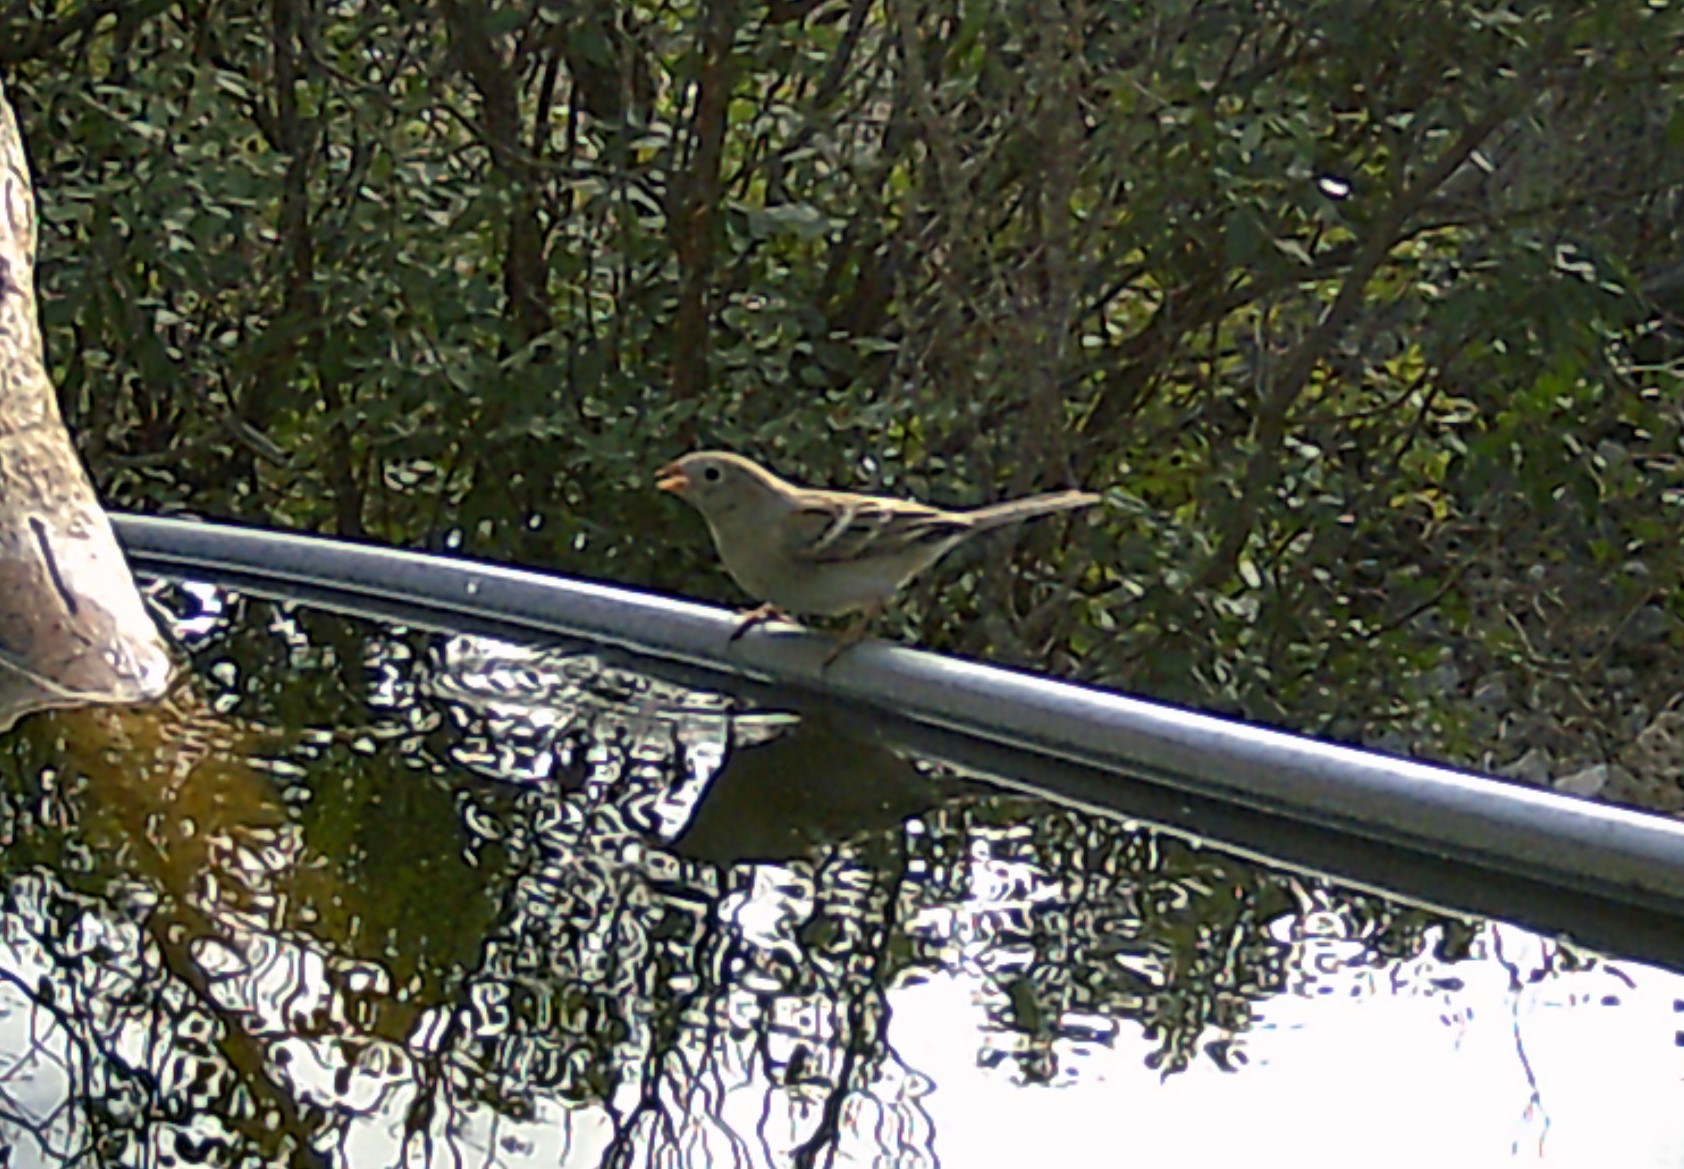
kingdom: Animalia
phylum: Chordata
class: Aves
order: Passeriformes
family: Passerellidae
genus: Spizella
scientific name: Spizella pusilla
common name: Field sparrow
